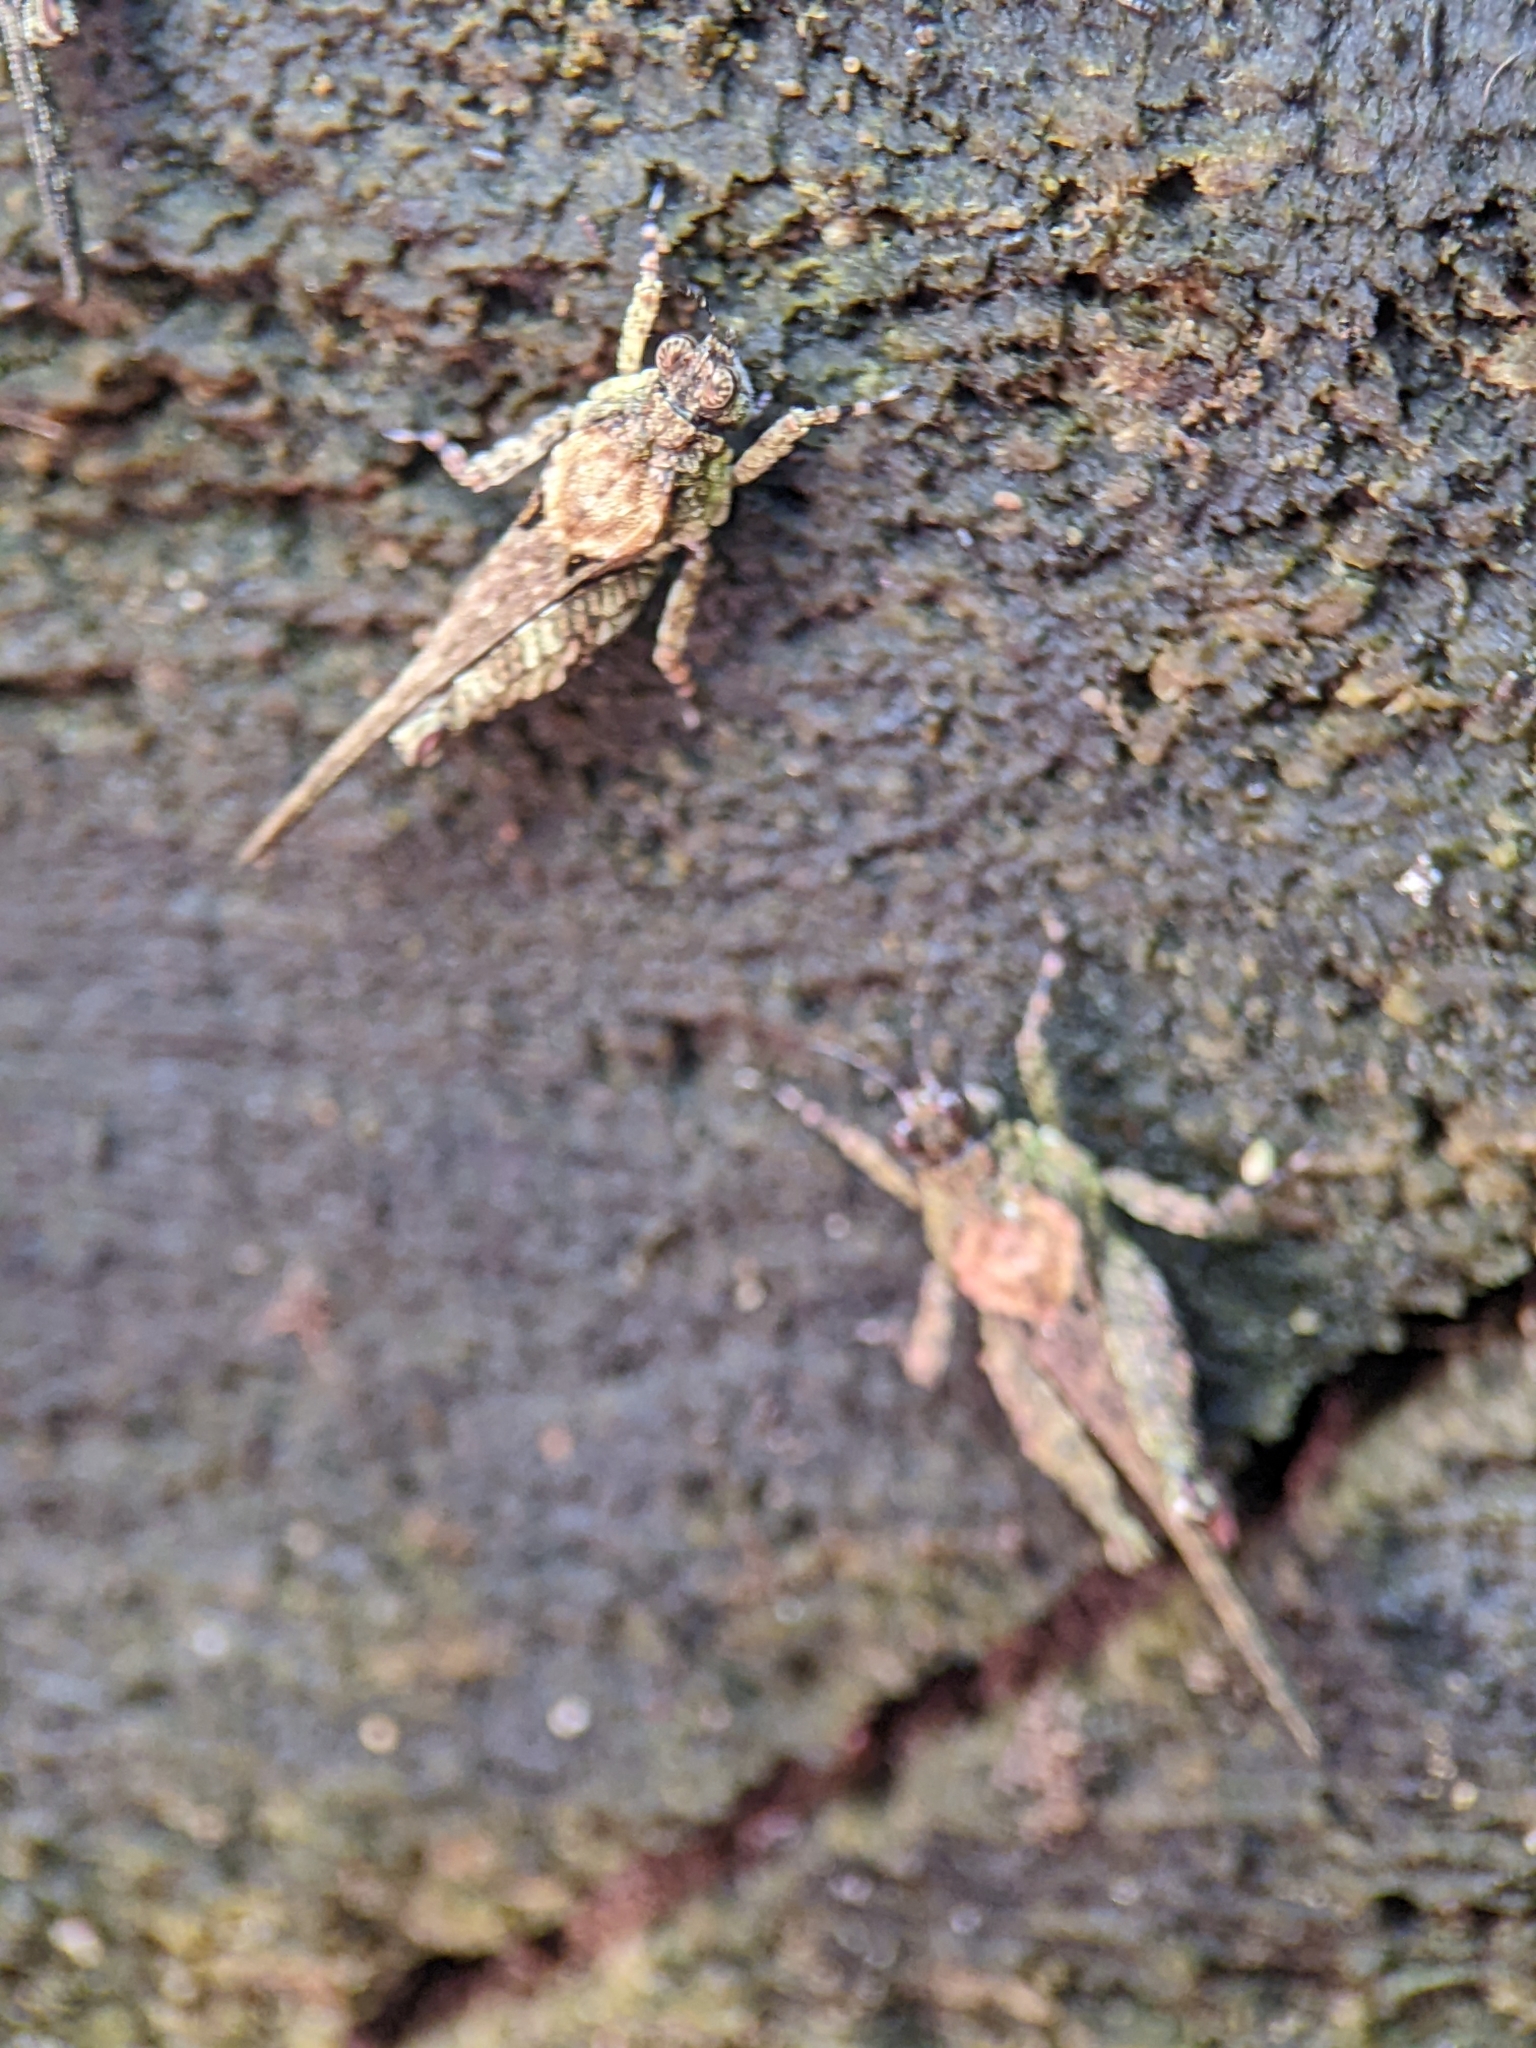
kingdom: Animalia
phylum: Arthropoda
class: Insecta
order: Orthoptera
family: Tetrigidae
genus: Lamellitettigodes
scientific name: Lamellitettigodes contractus
